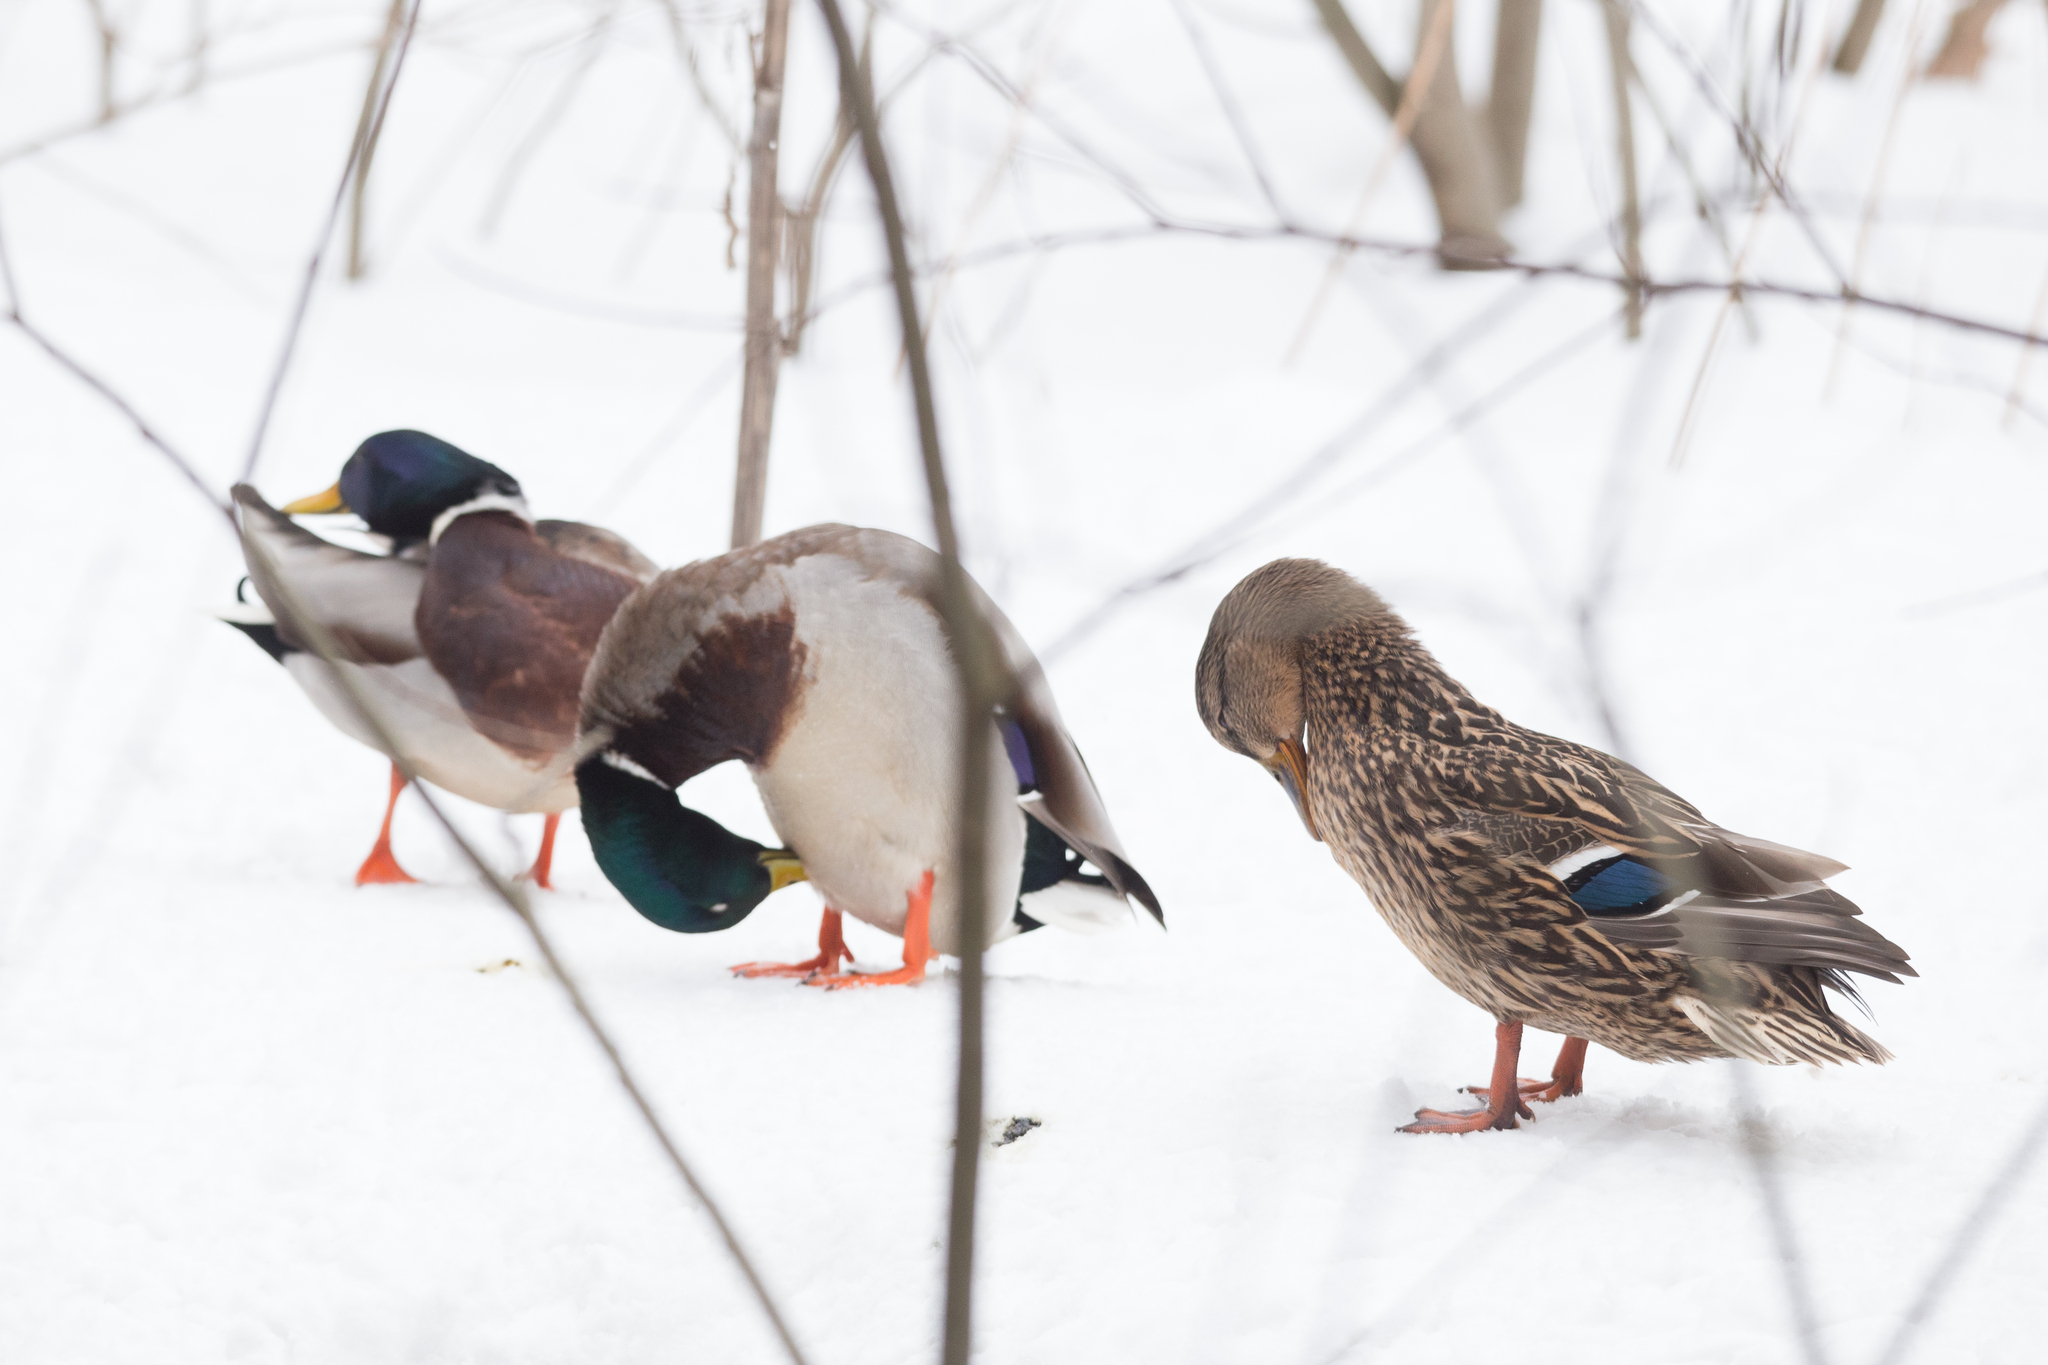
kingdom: Animalia
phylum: Chordata
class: Aves
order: Anseriformes
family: Anatidae
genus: Anas
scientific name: Anas platyrhynchos
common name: Mallard
